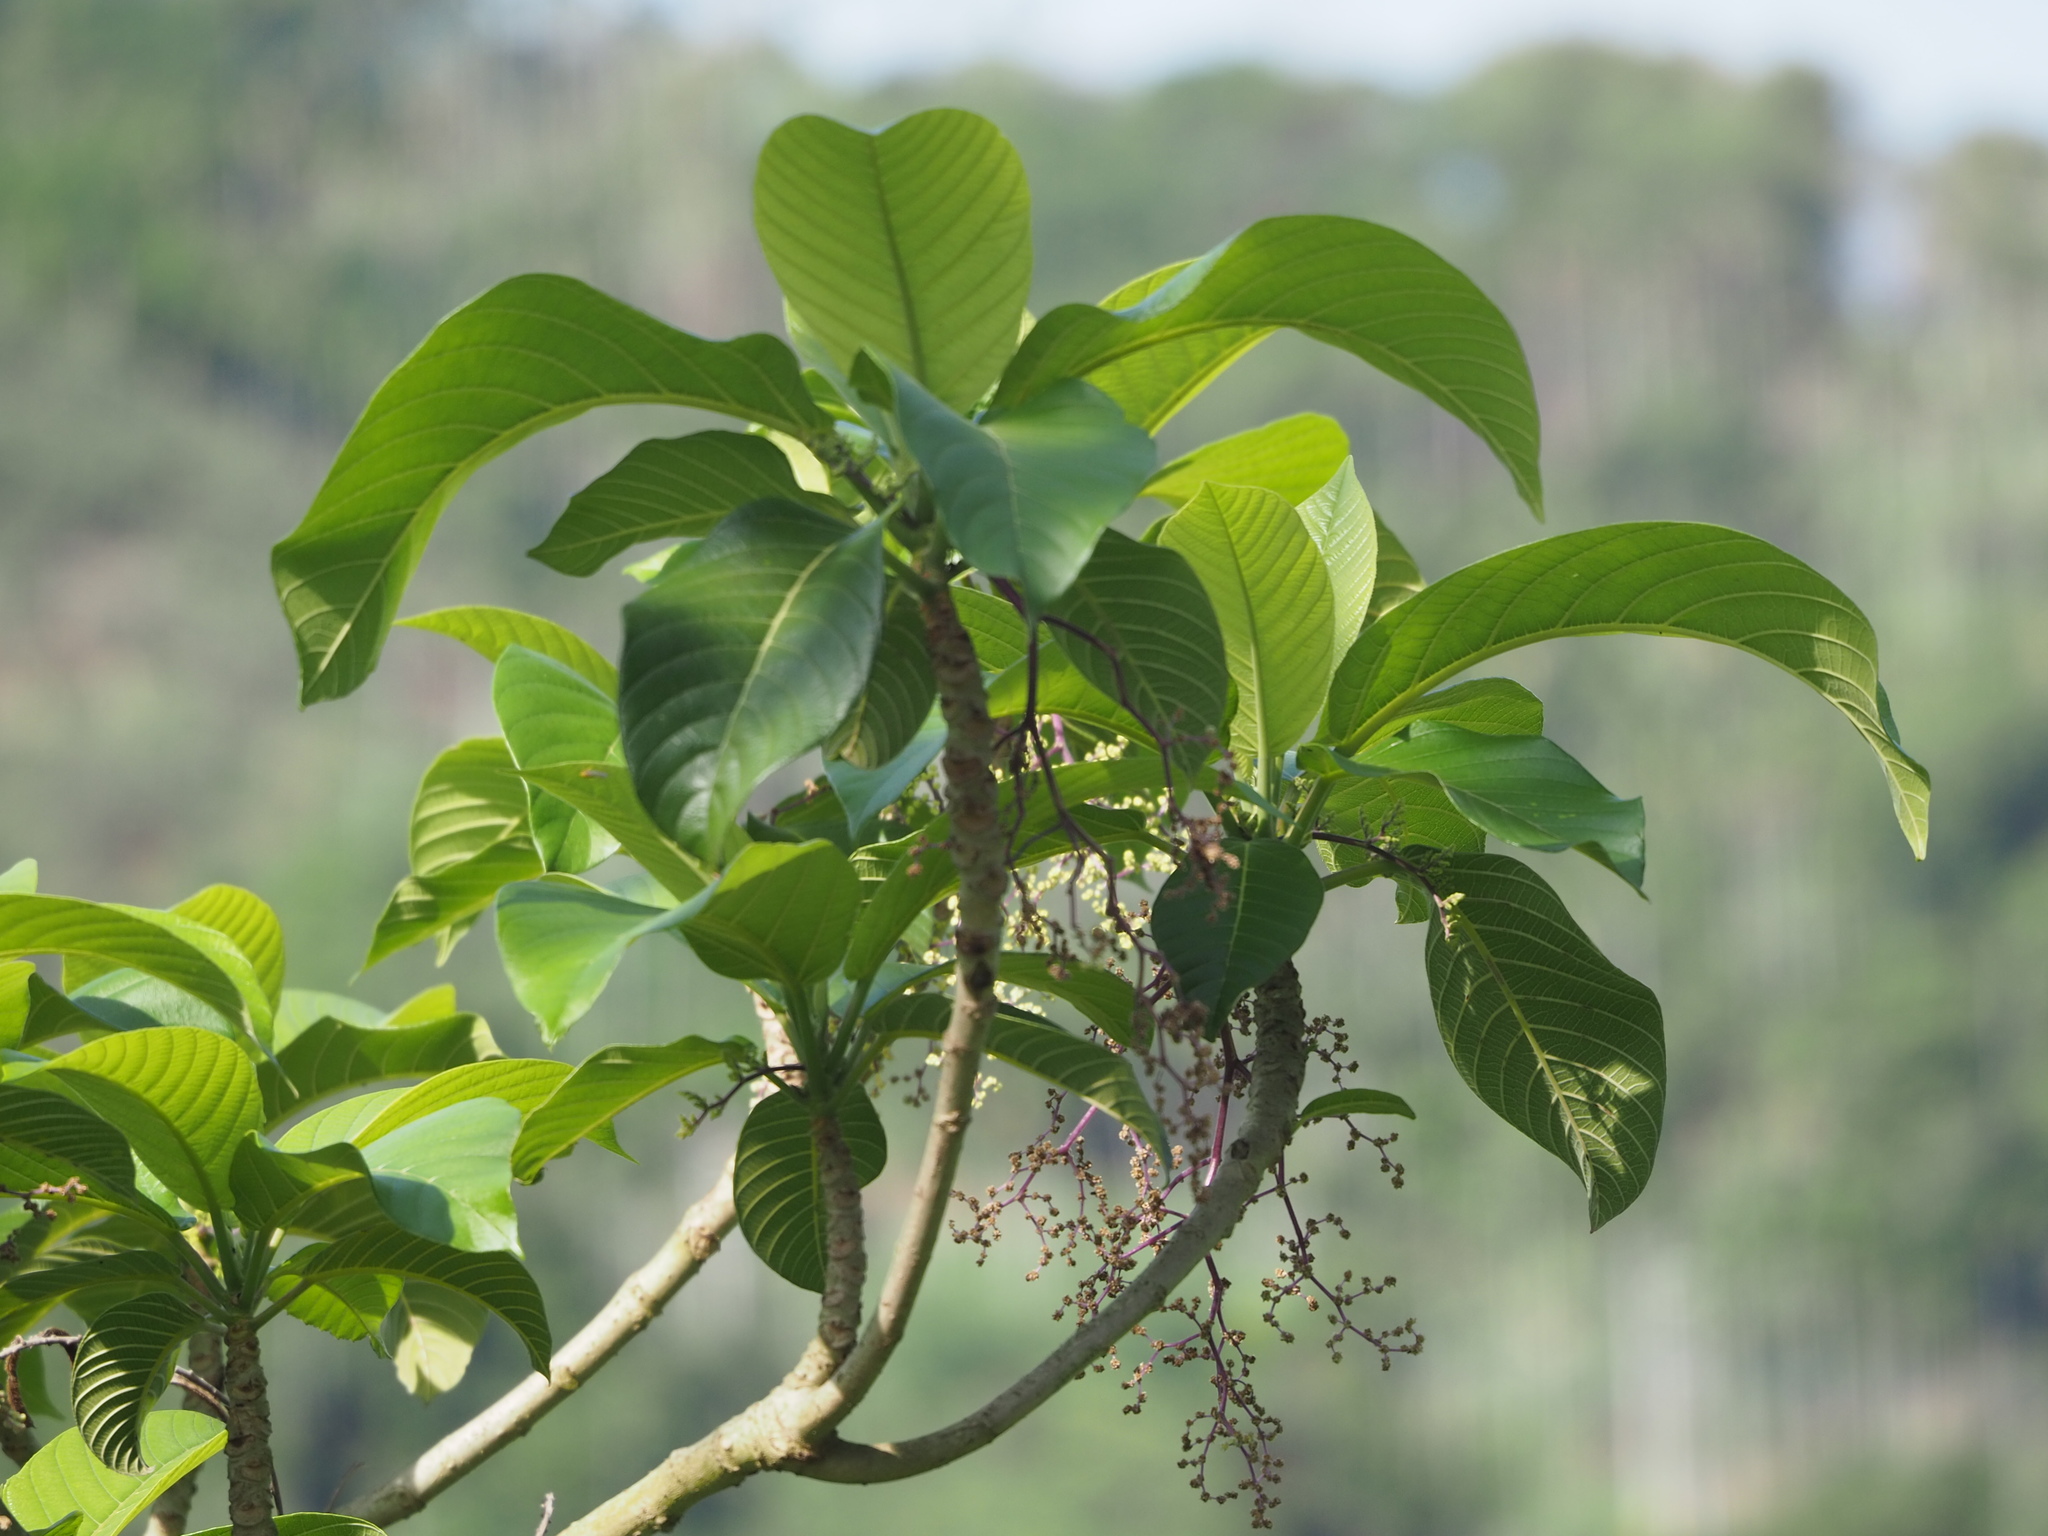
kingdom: Plantae
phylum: Tracheophyta
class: Magnoliopsida
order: Rosales
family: Urticaceae
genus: Dendrocnide
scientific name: Dendrocnide meyeniana
